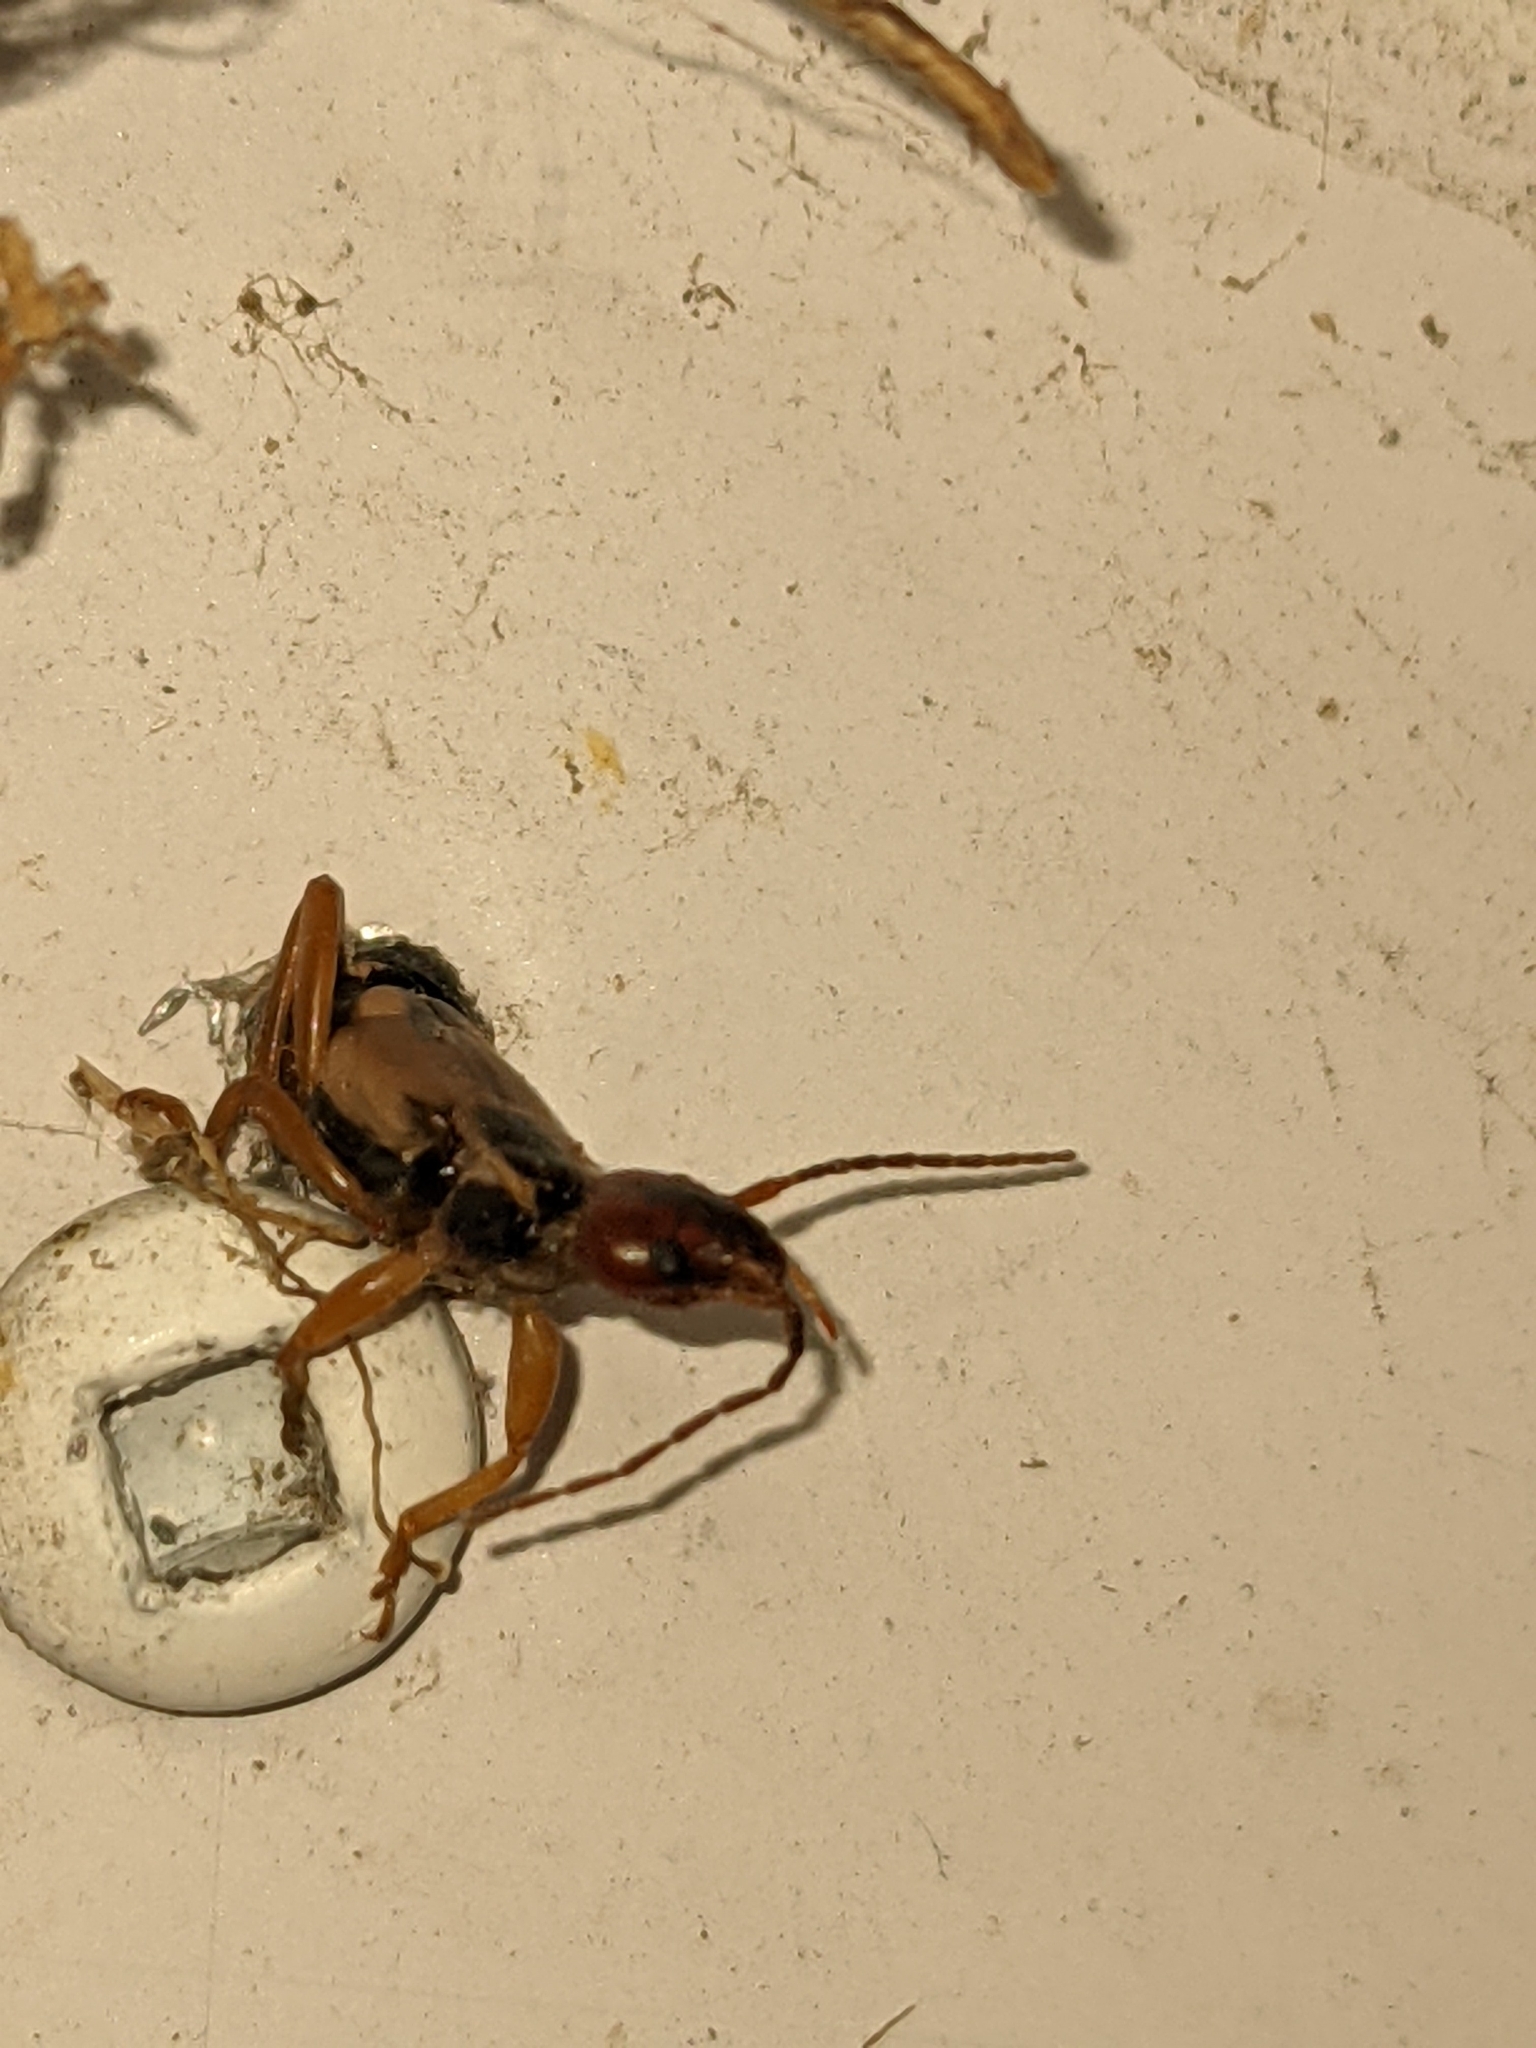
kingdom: Animalia
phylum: Arthropoda
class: Insecta
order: Dermaptera
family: Forficulidae
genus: Forficula
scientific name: Forficula
